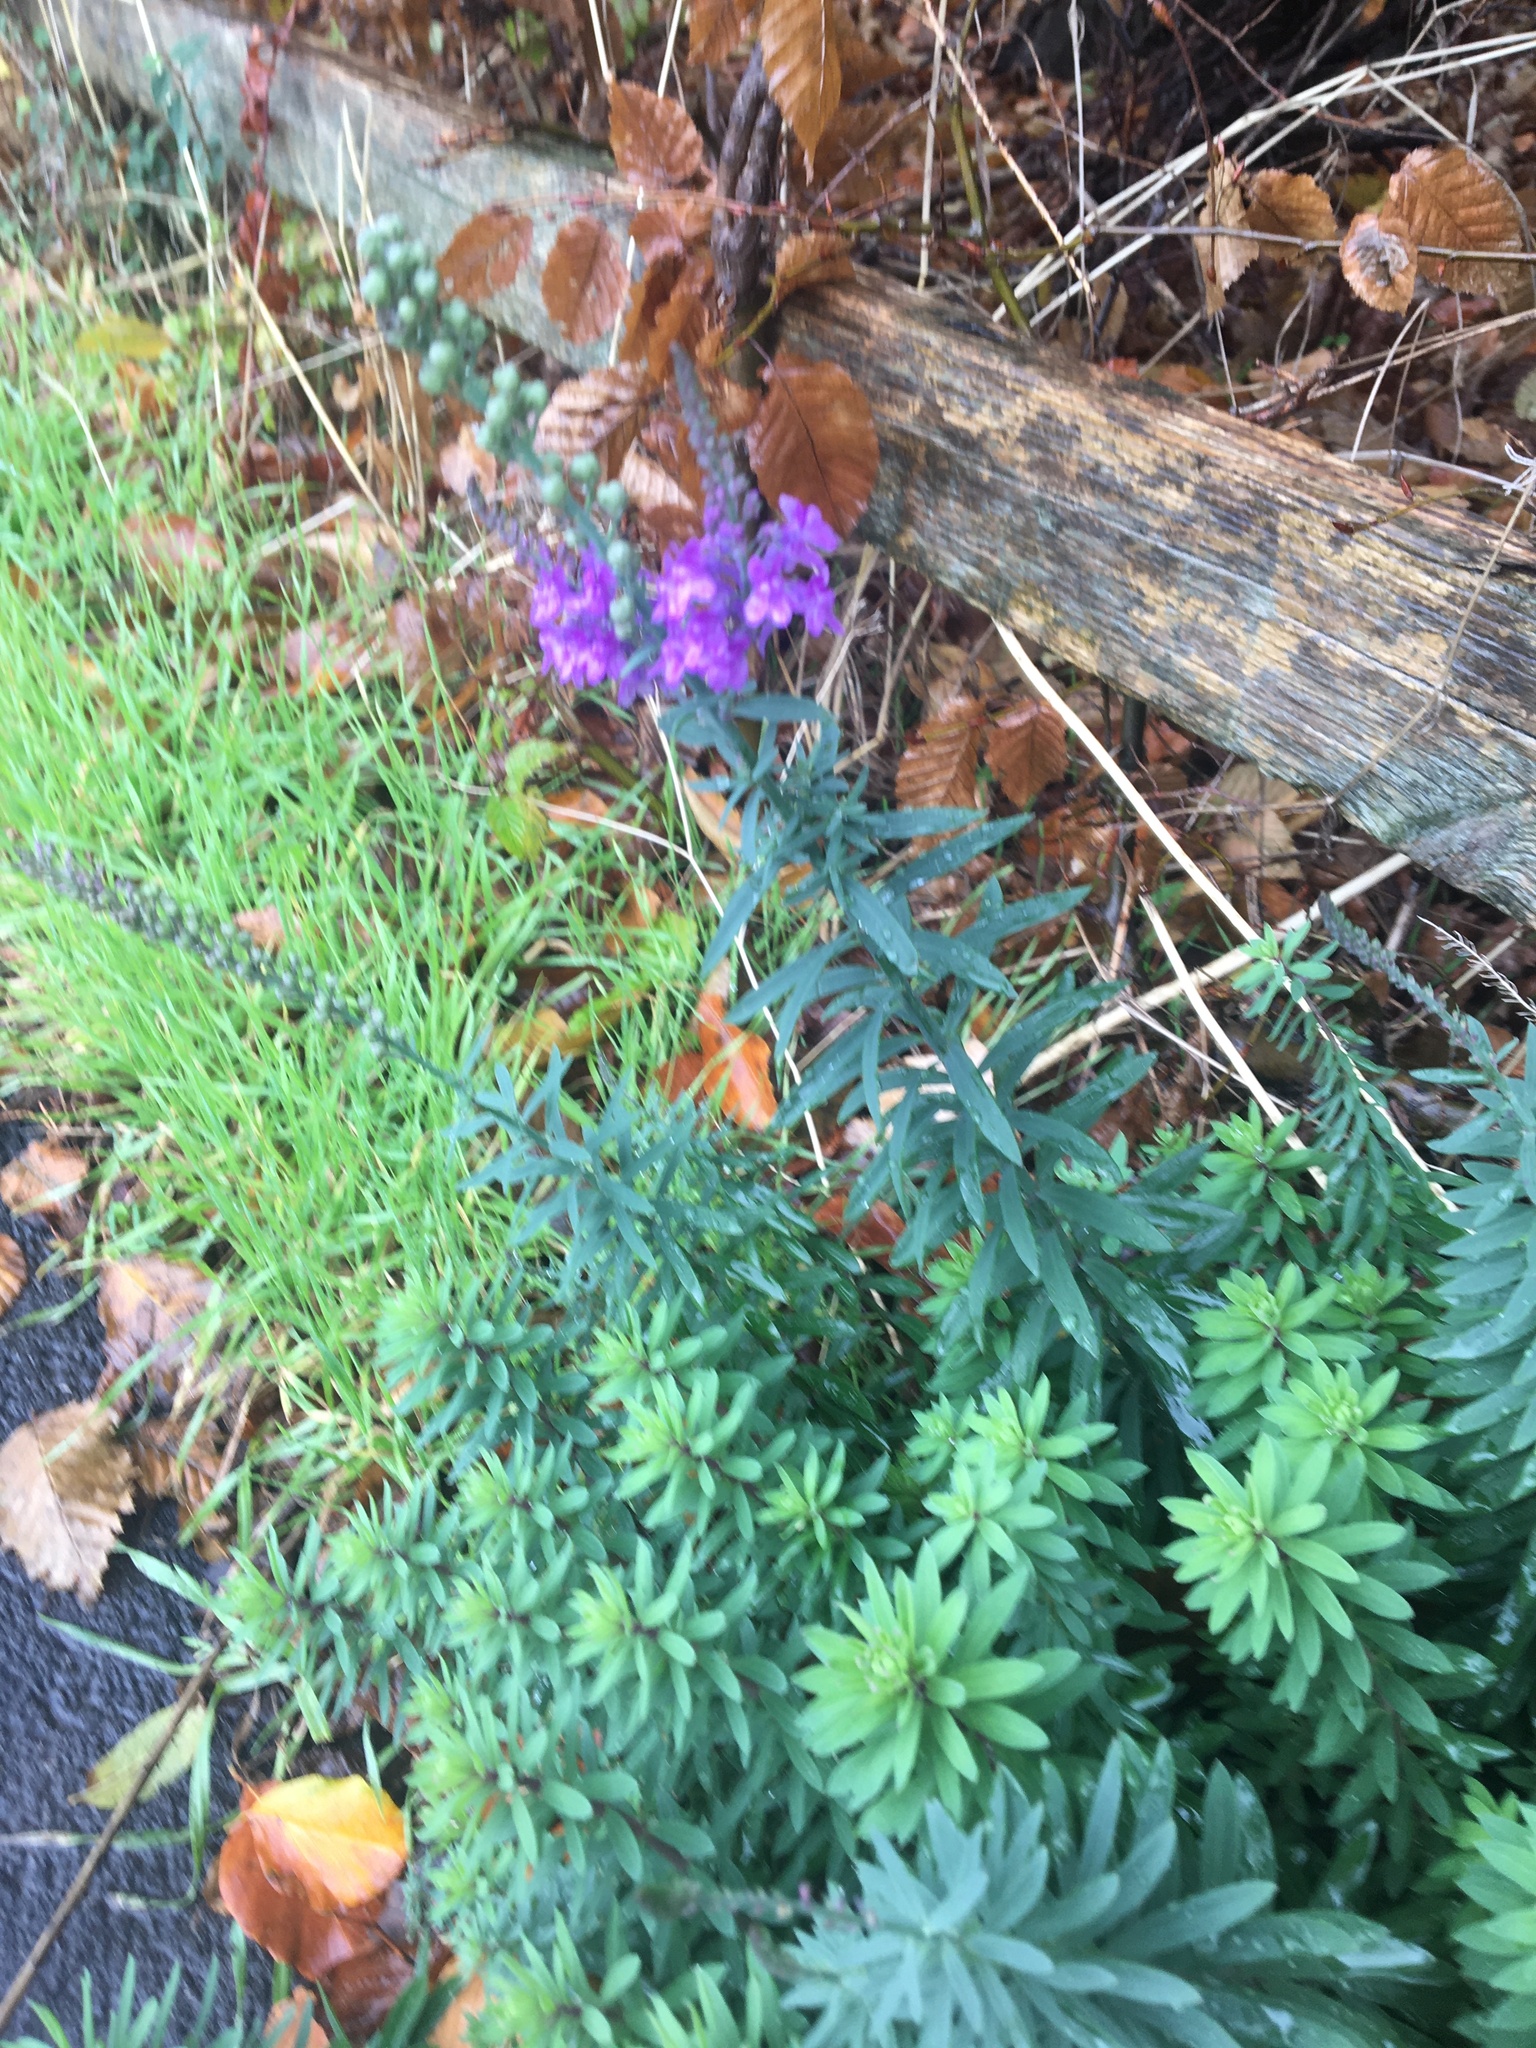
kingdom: Plantae
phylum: Tracheophyta
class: Magnoliopsida
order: Lamiales
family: Plantaginaceae
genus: Linaria
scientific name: Linaria purpurea
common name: Purple toadflax
